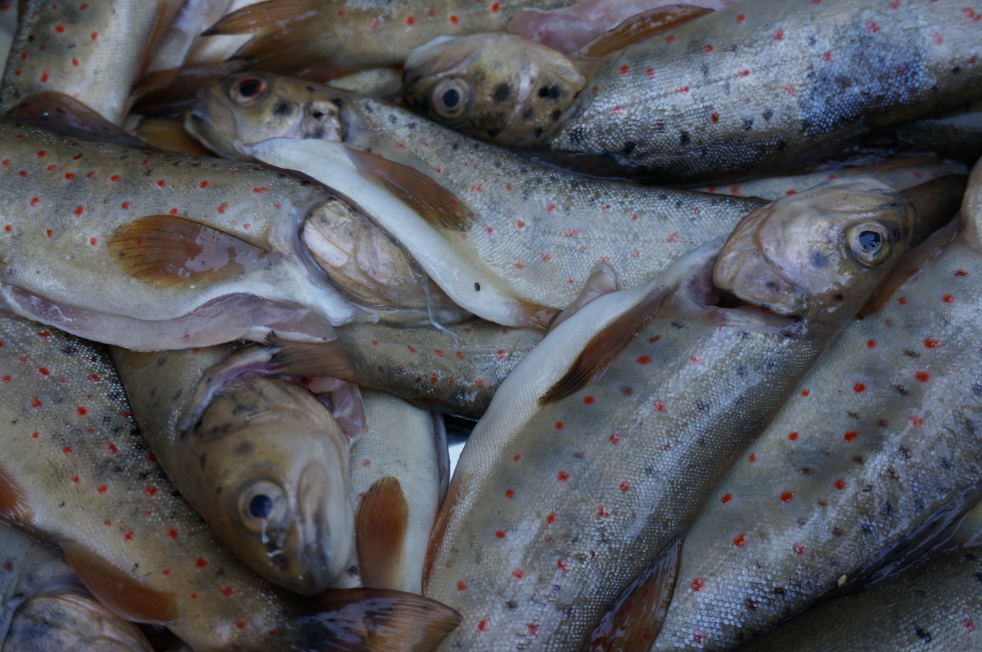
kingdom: Animalia
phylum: Chordata
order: Salmoniformes
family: Salmonidae
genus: Salmo
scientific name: Salmo trutta
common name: Brown trout
